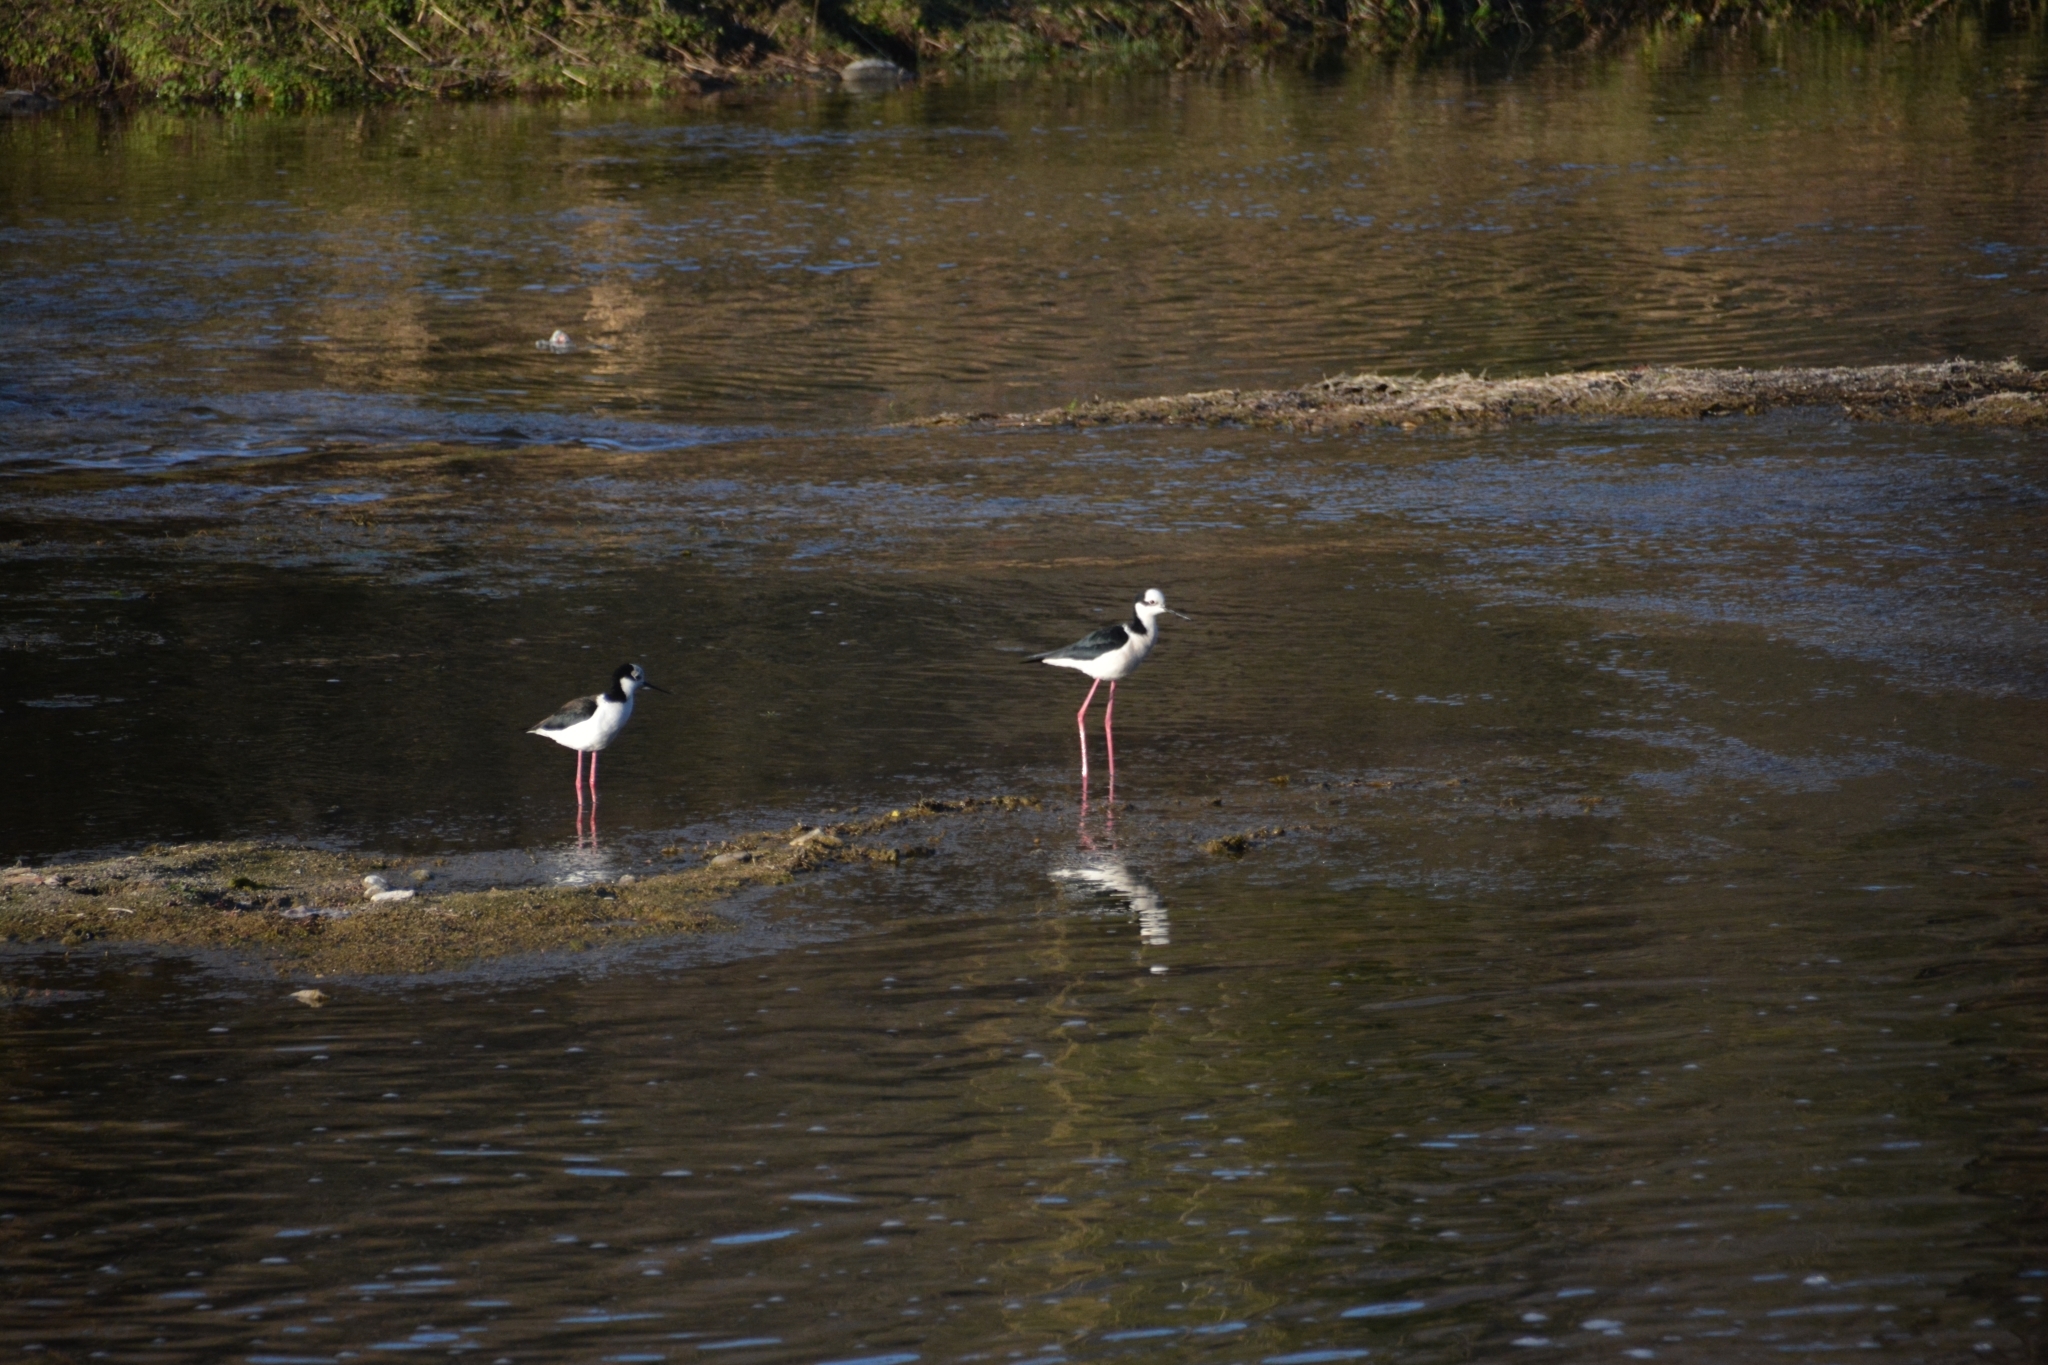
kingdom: Animalia
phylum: Chordata
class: Aves
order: Charadriiformes
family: Recurvirostridae
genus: Himantopus
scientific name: Himantopus mexicanus
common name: Black-necked stilt
